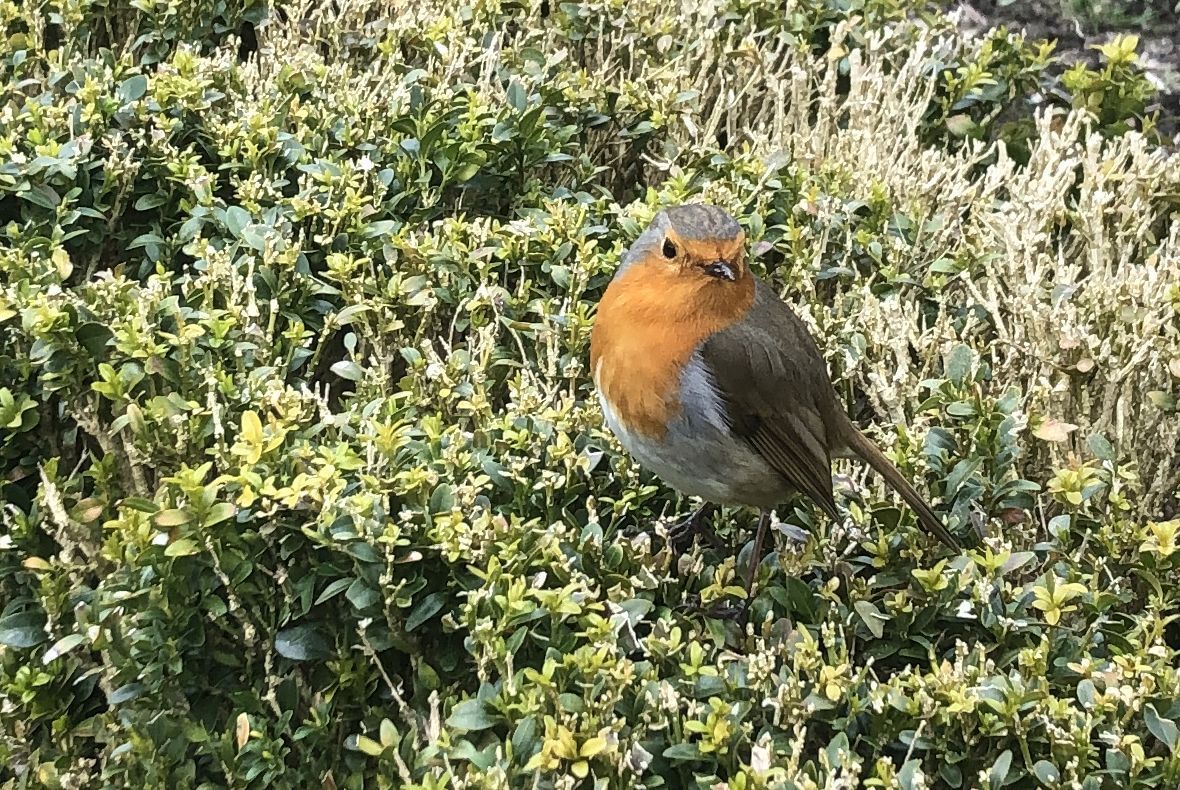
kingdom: Animalia
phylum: Chordata
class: Aves
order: Passeriformes
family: Muscicapidae
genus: Erithacus
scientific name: Erithacus rubecula
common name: European robin
